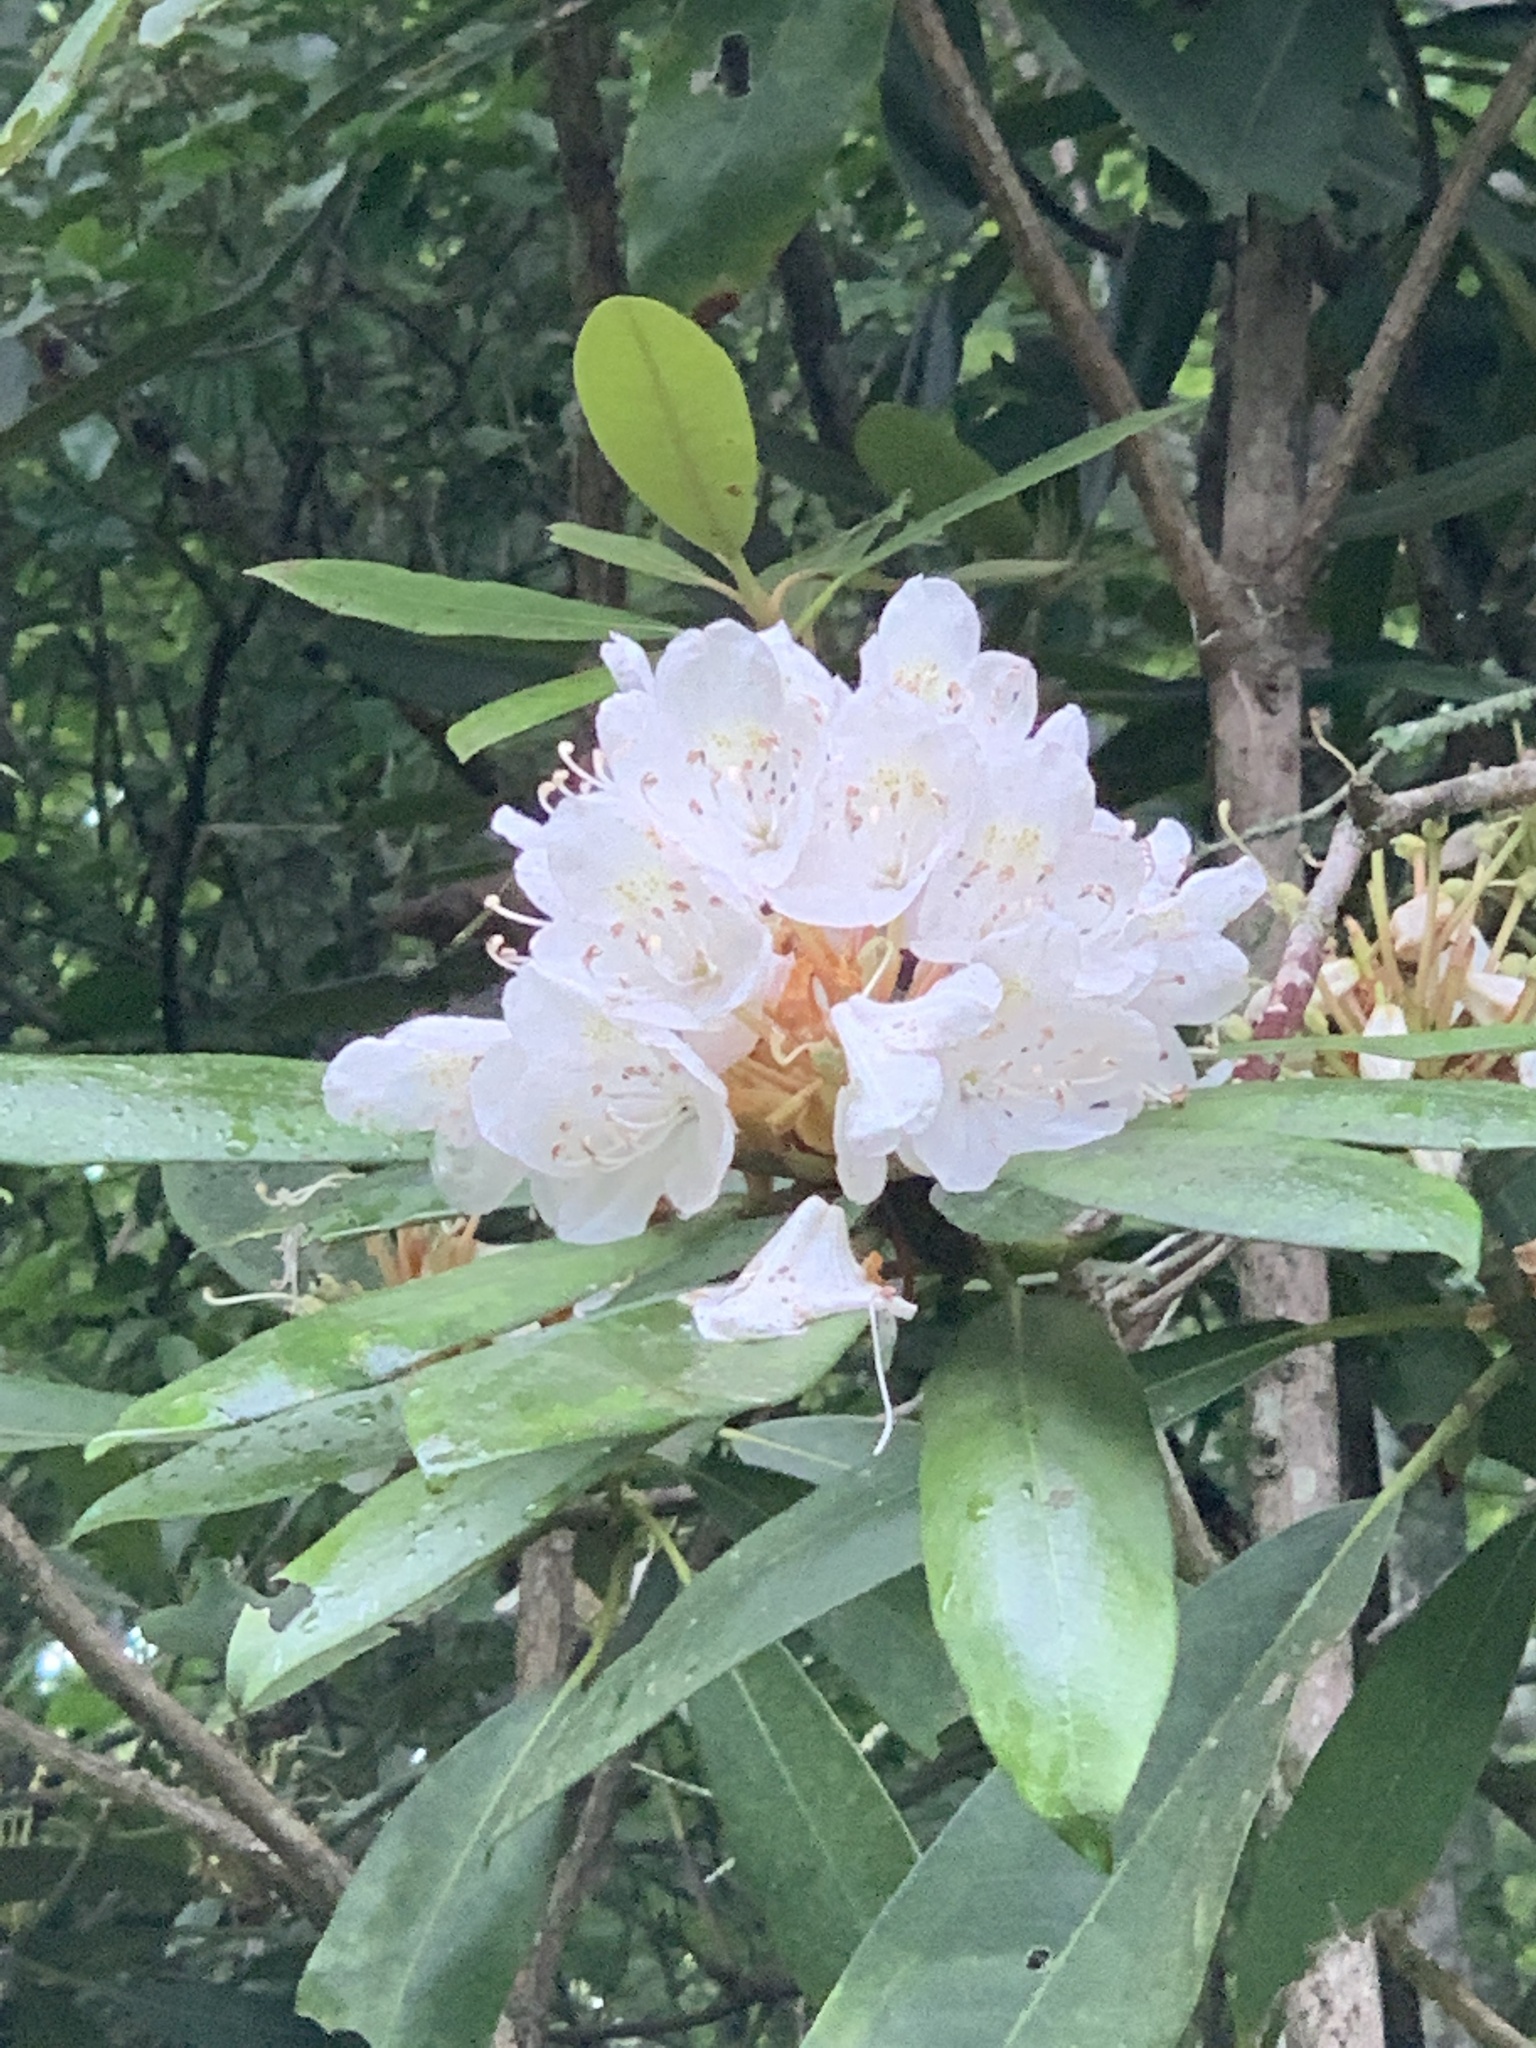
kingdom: Plantae
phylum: Tracheophyta
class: Magnoliopsida
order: Ericales
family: Ericaceae
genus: Rhododendron
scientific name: Rhododendron maximum
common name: Great rhododendron
